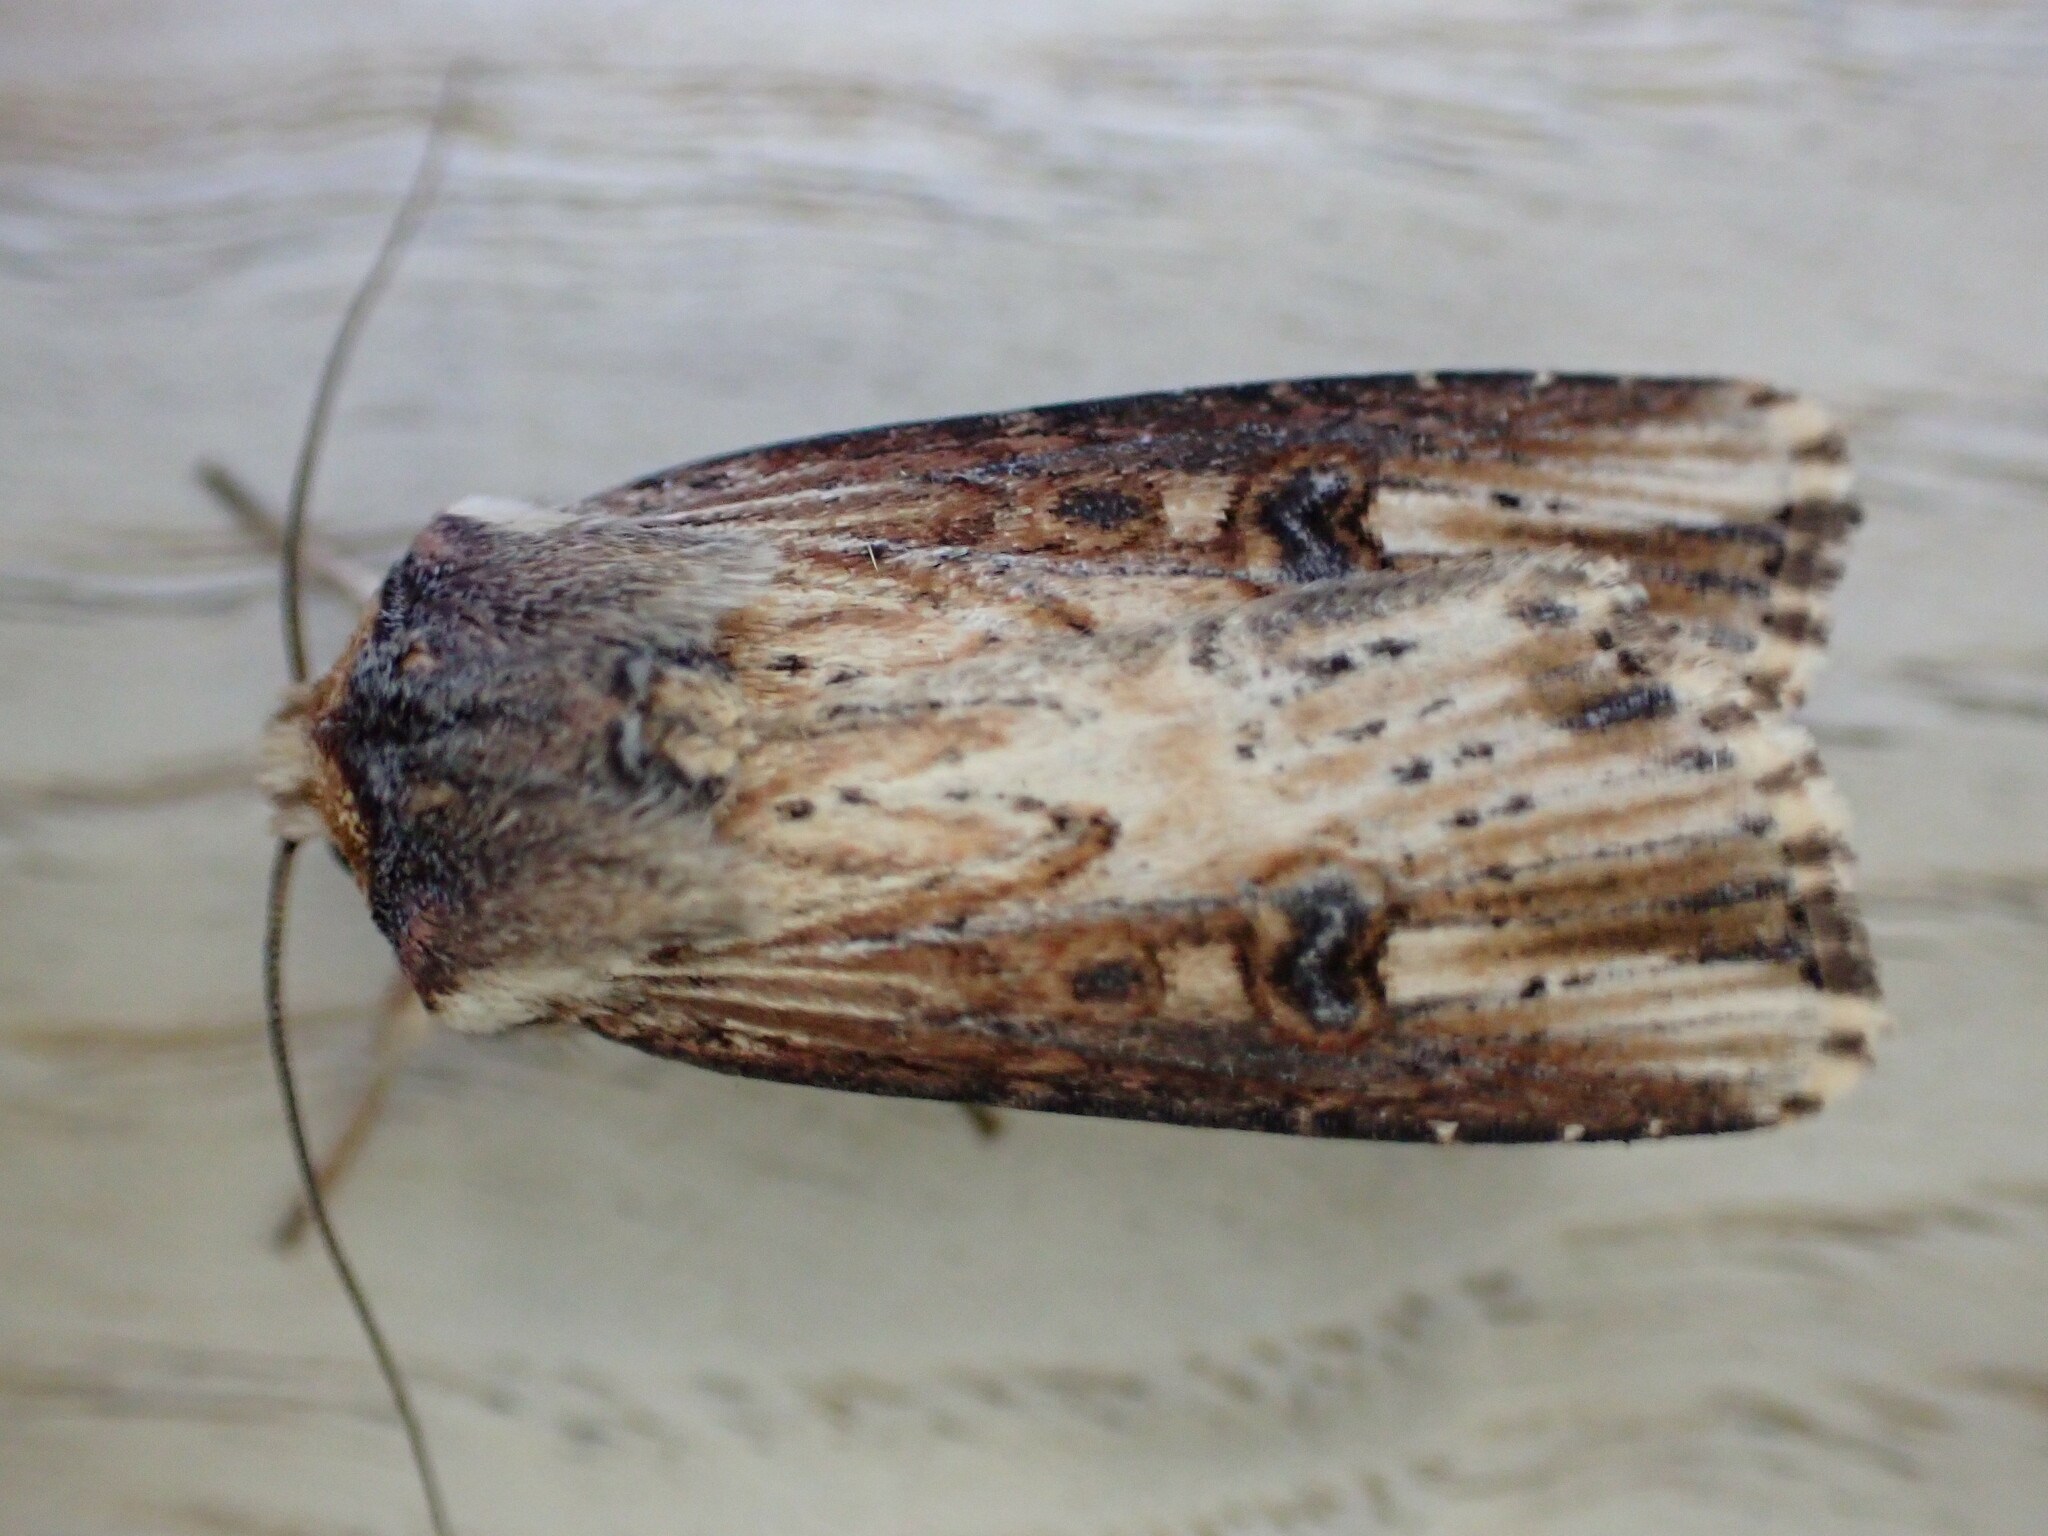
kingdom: Animalia
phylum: Arthropoda
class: Insecta
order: Lepidoptera
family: Noctuidae
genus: Axylia
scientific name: Axylia putris
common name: Flame
